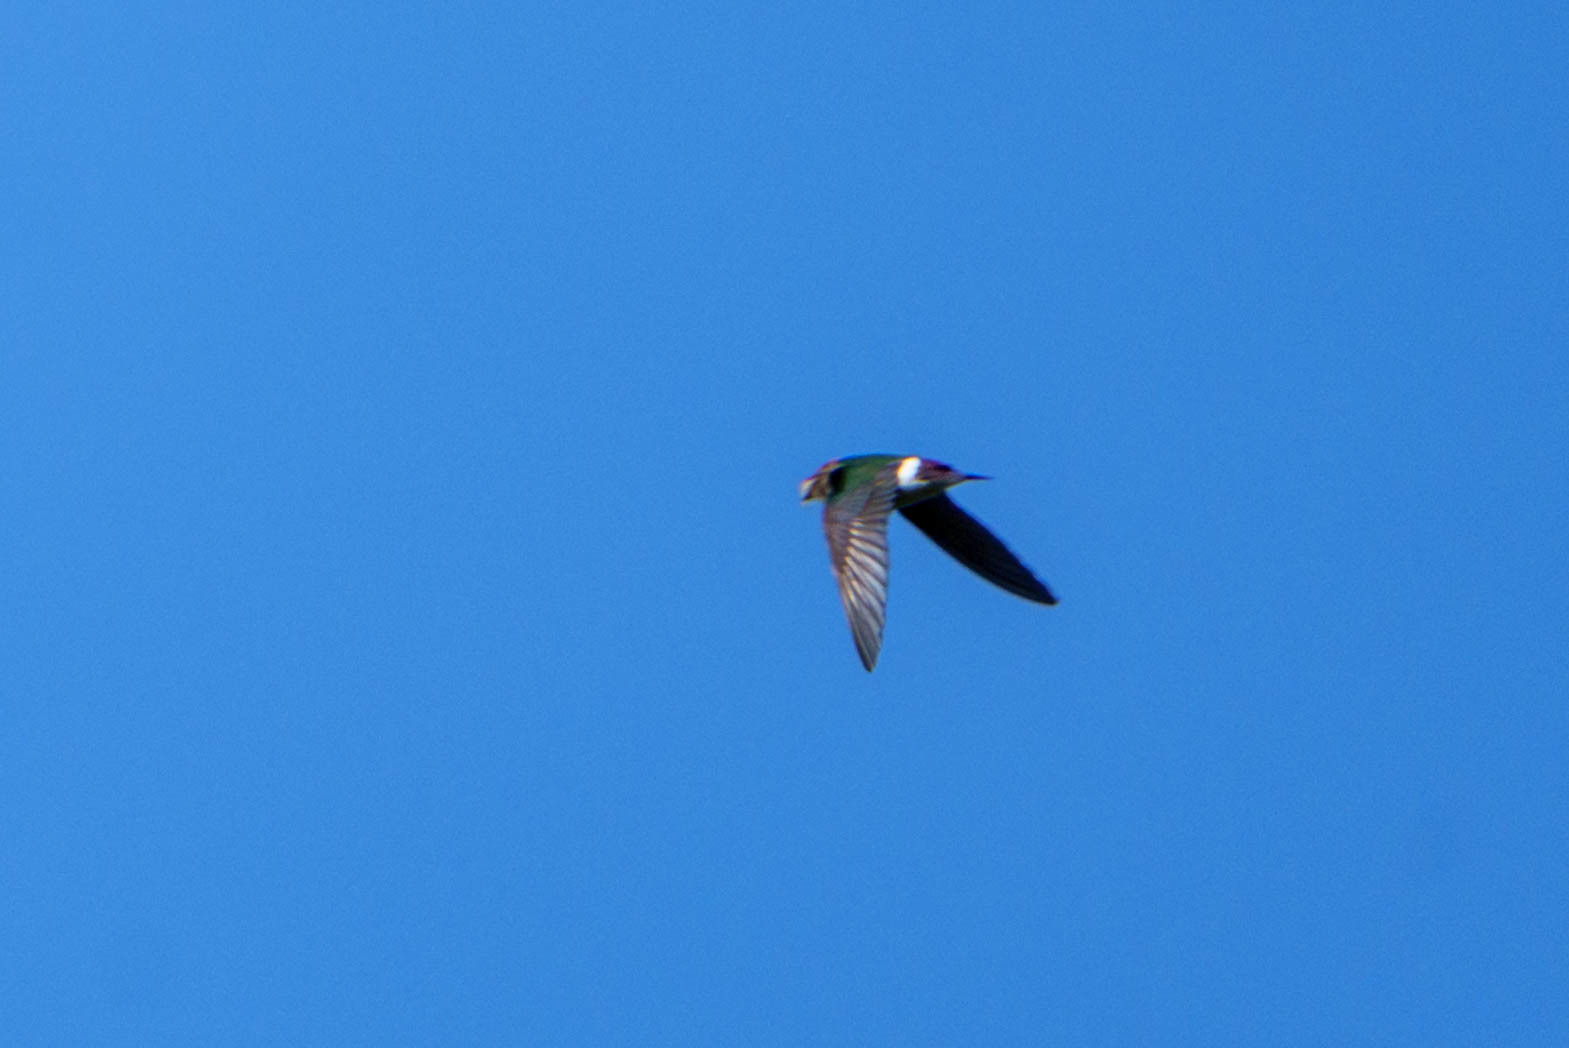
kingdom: Animalia
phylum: Chordata
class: Aves
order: Passeriformes
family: Hirundinidae
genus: Tachycineta
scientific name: Tachycineta thalassina
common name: Violet-green swallow
